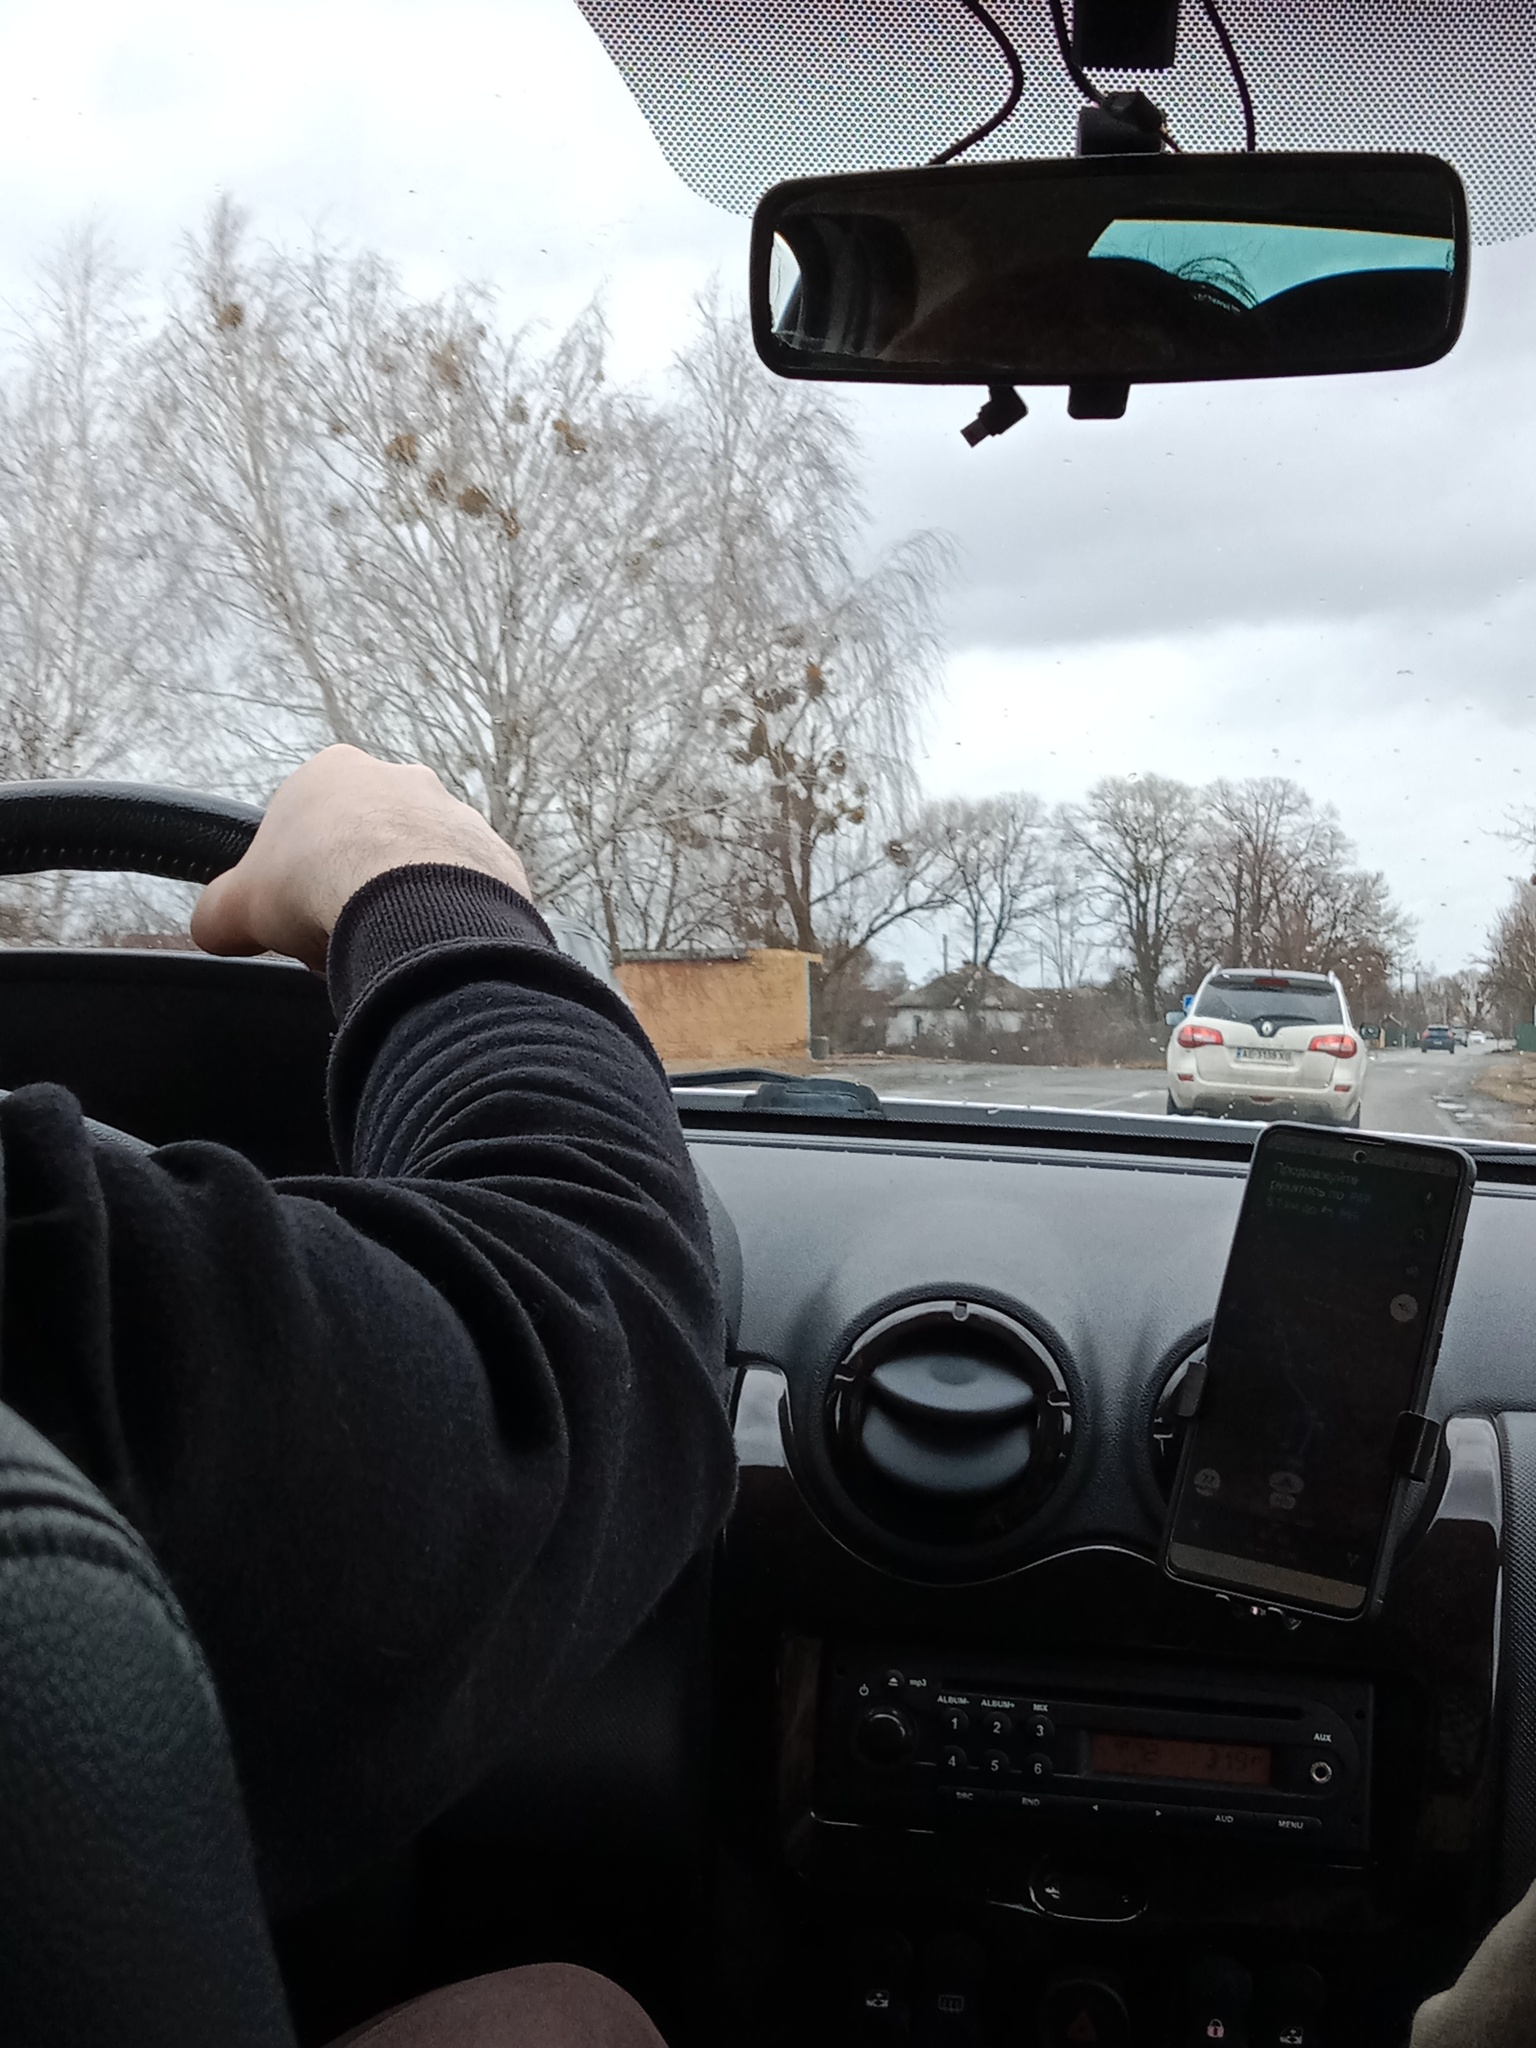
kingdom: Plantae
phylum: Tracheophyta
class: Magnoliopsida
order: Santalales
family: Viscaceae
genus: Viscum
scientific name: Viscum album
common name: Mistletoe
